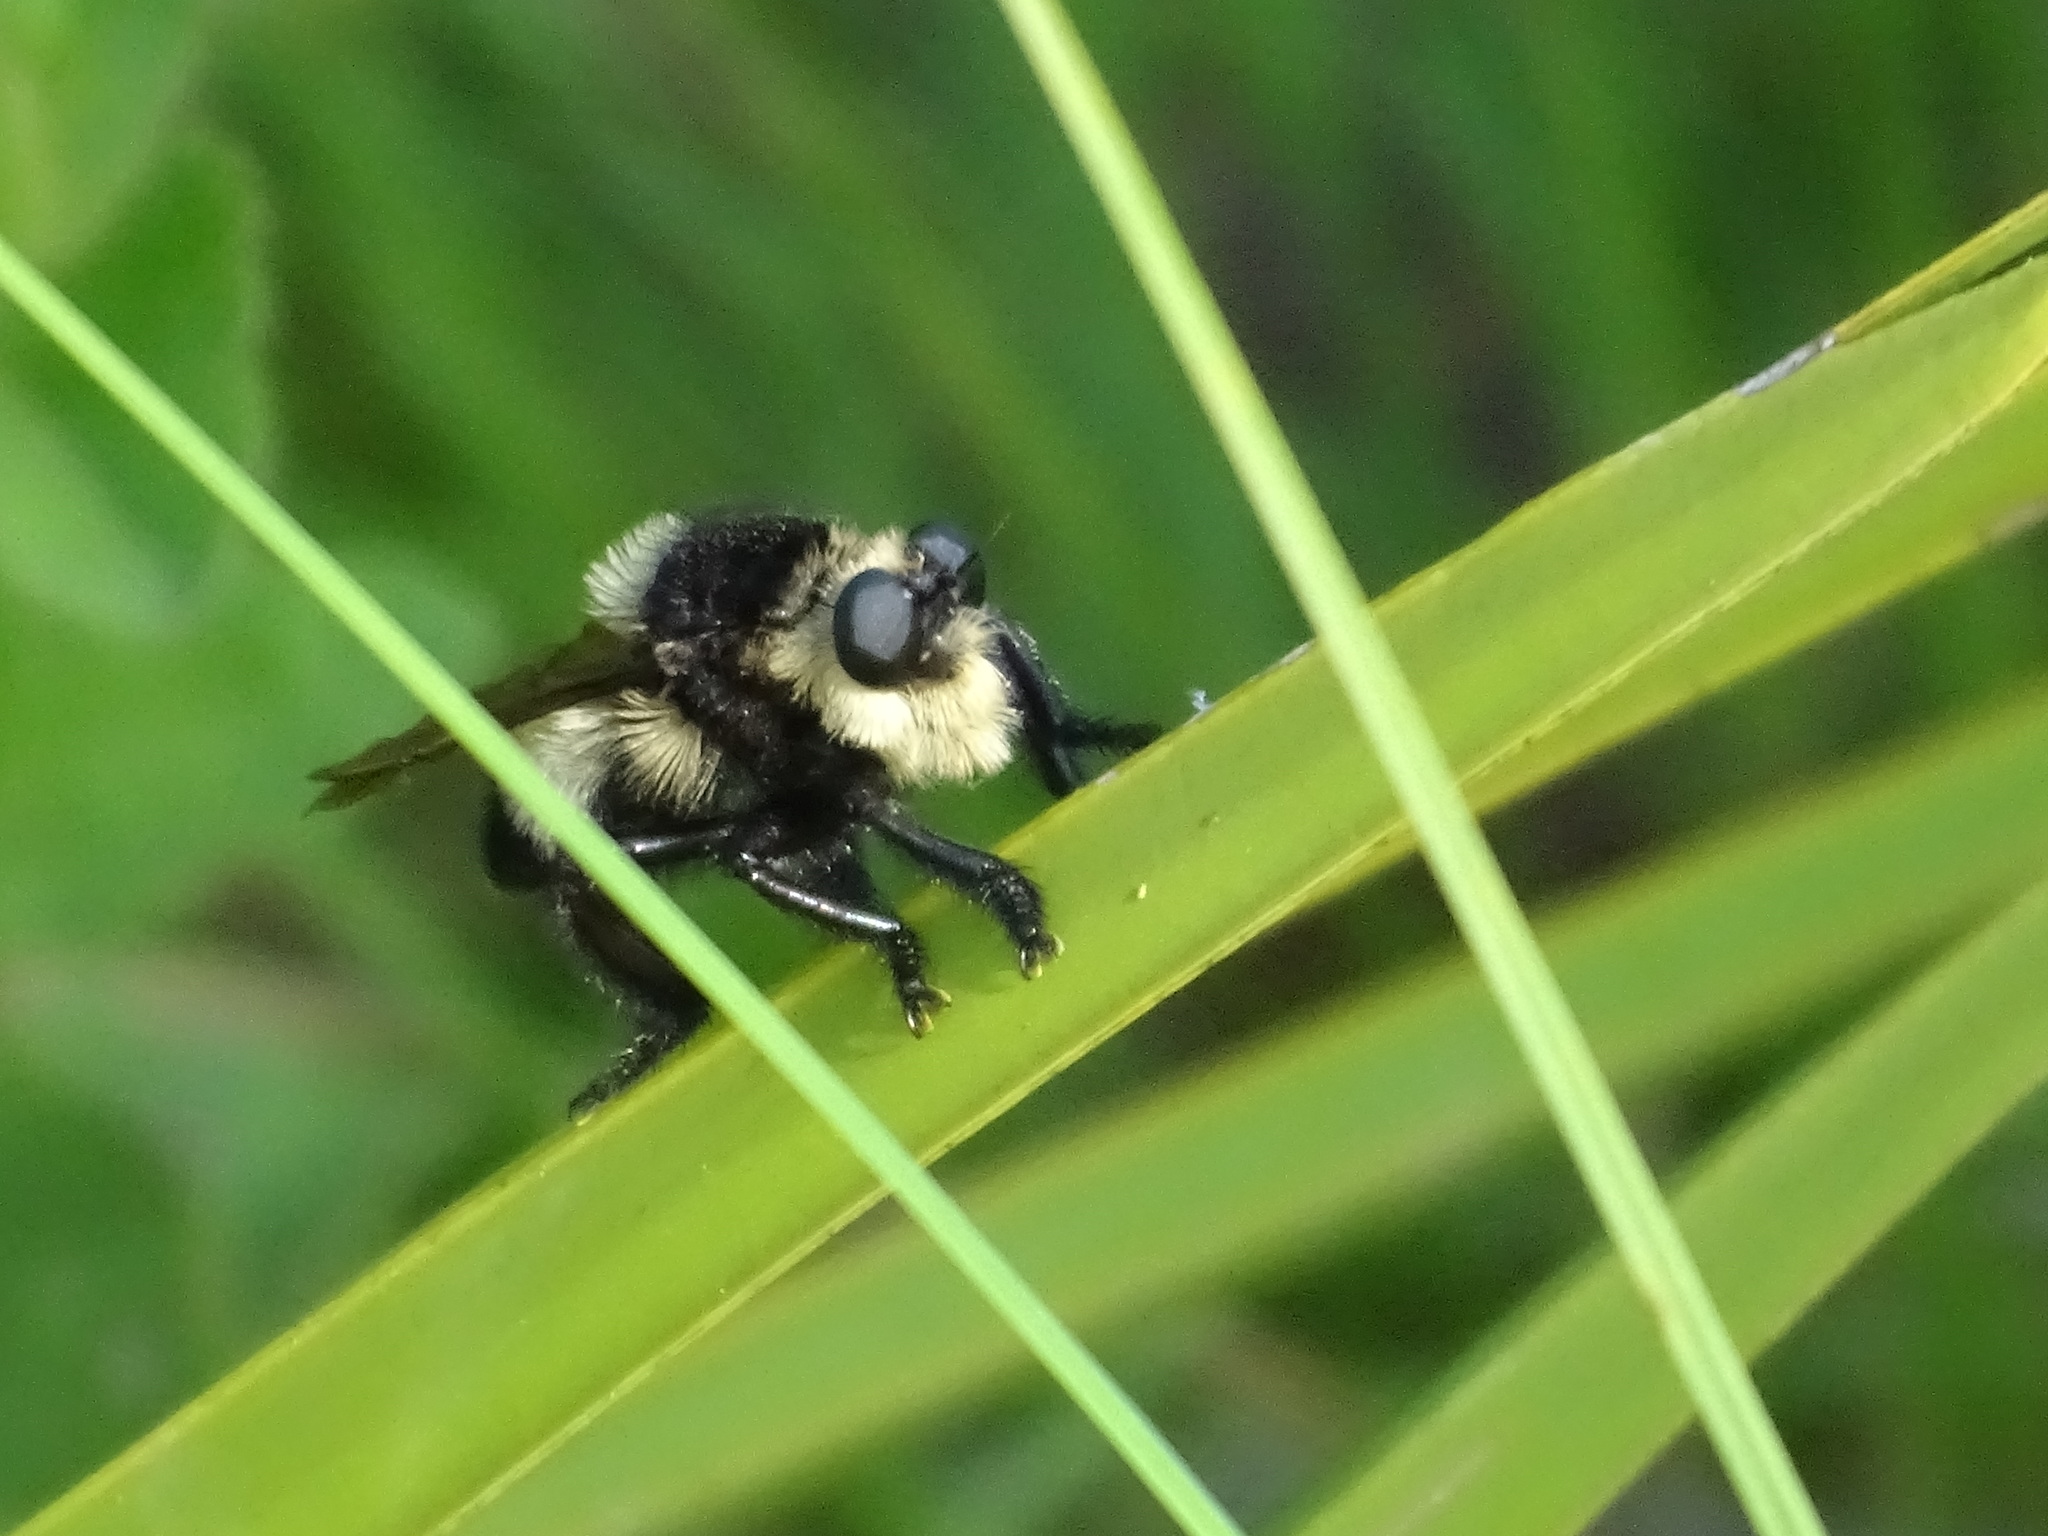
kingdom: Animalia
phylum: Arthropoda
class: Insecta
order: Diptera
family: Asilidae
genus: Mallophora
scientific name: Mallophora orcina
